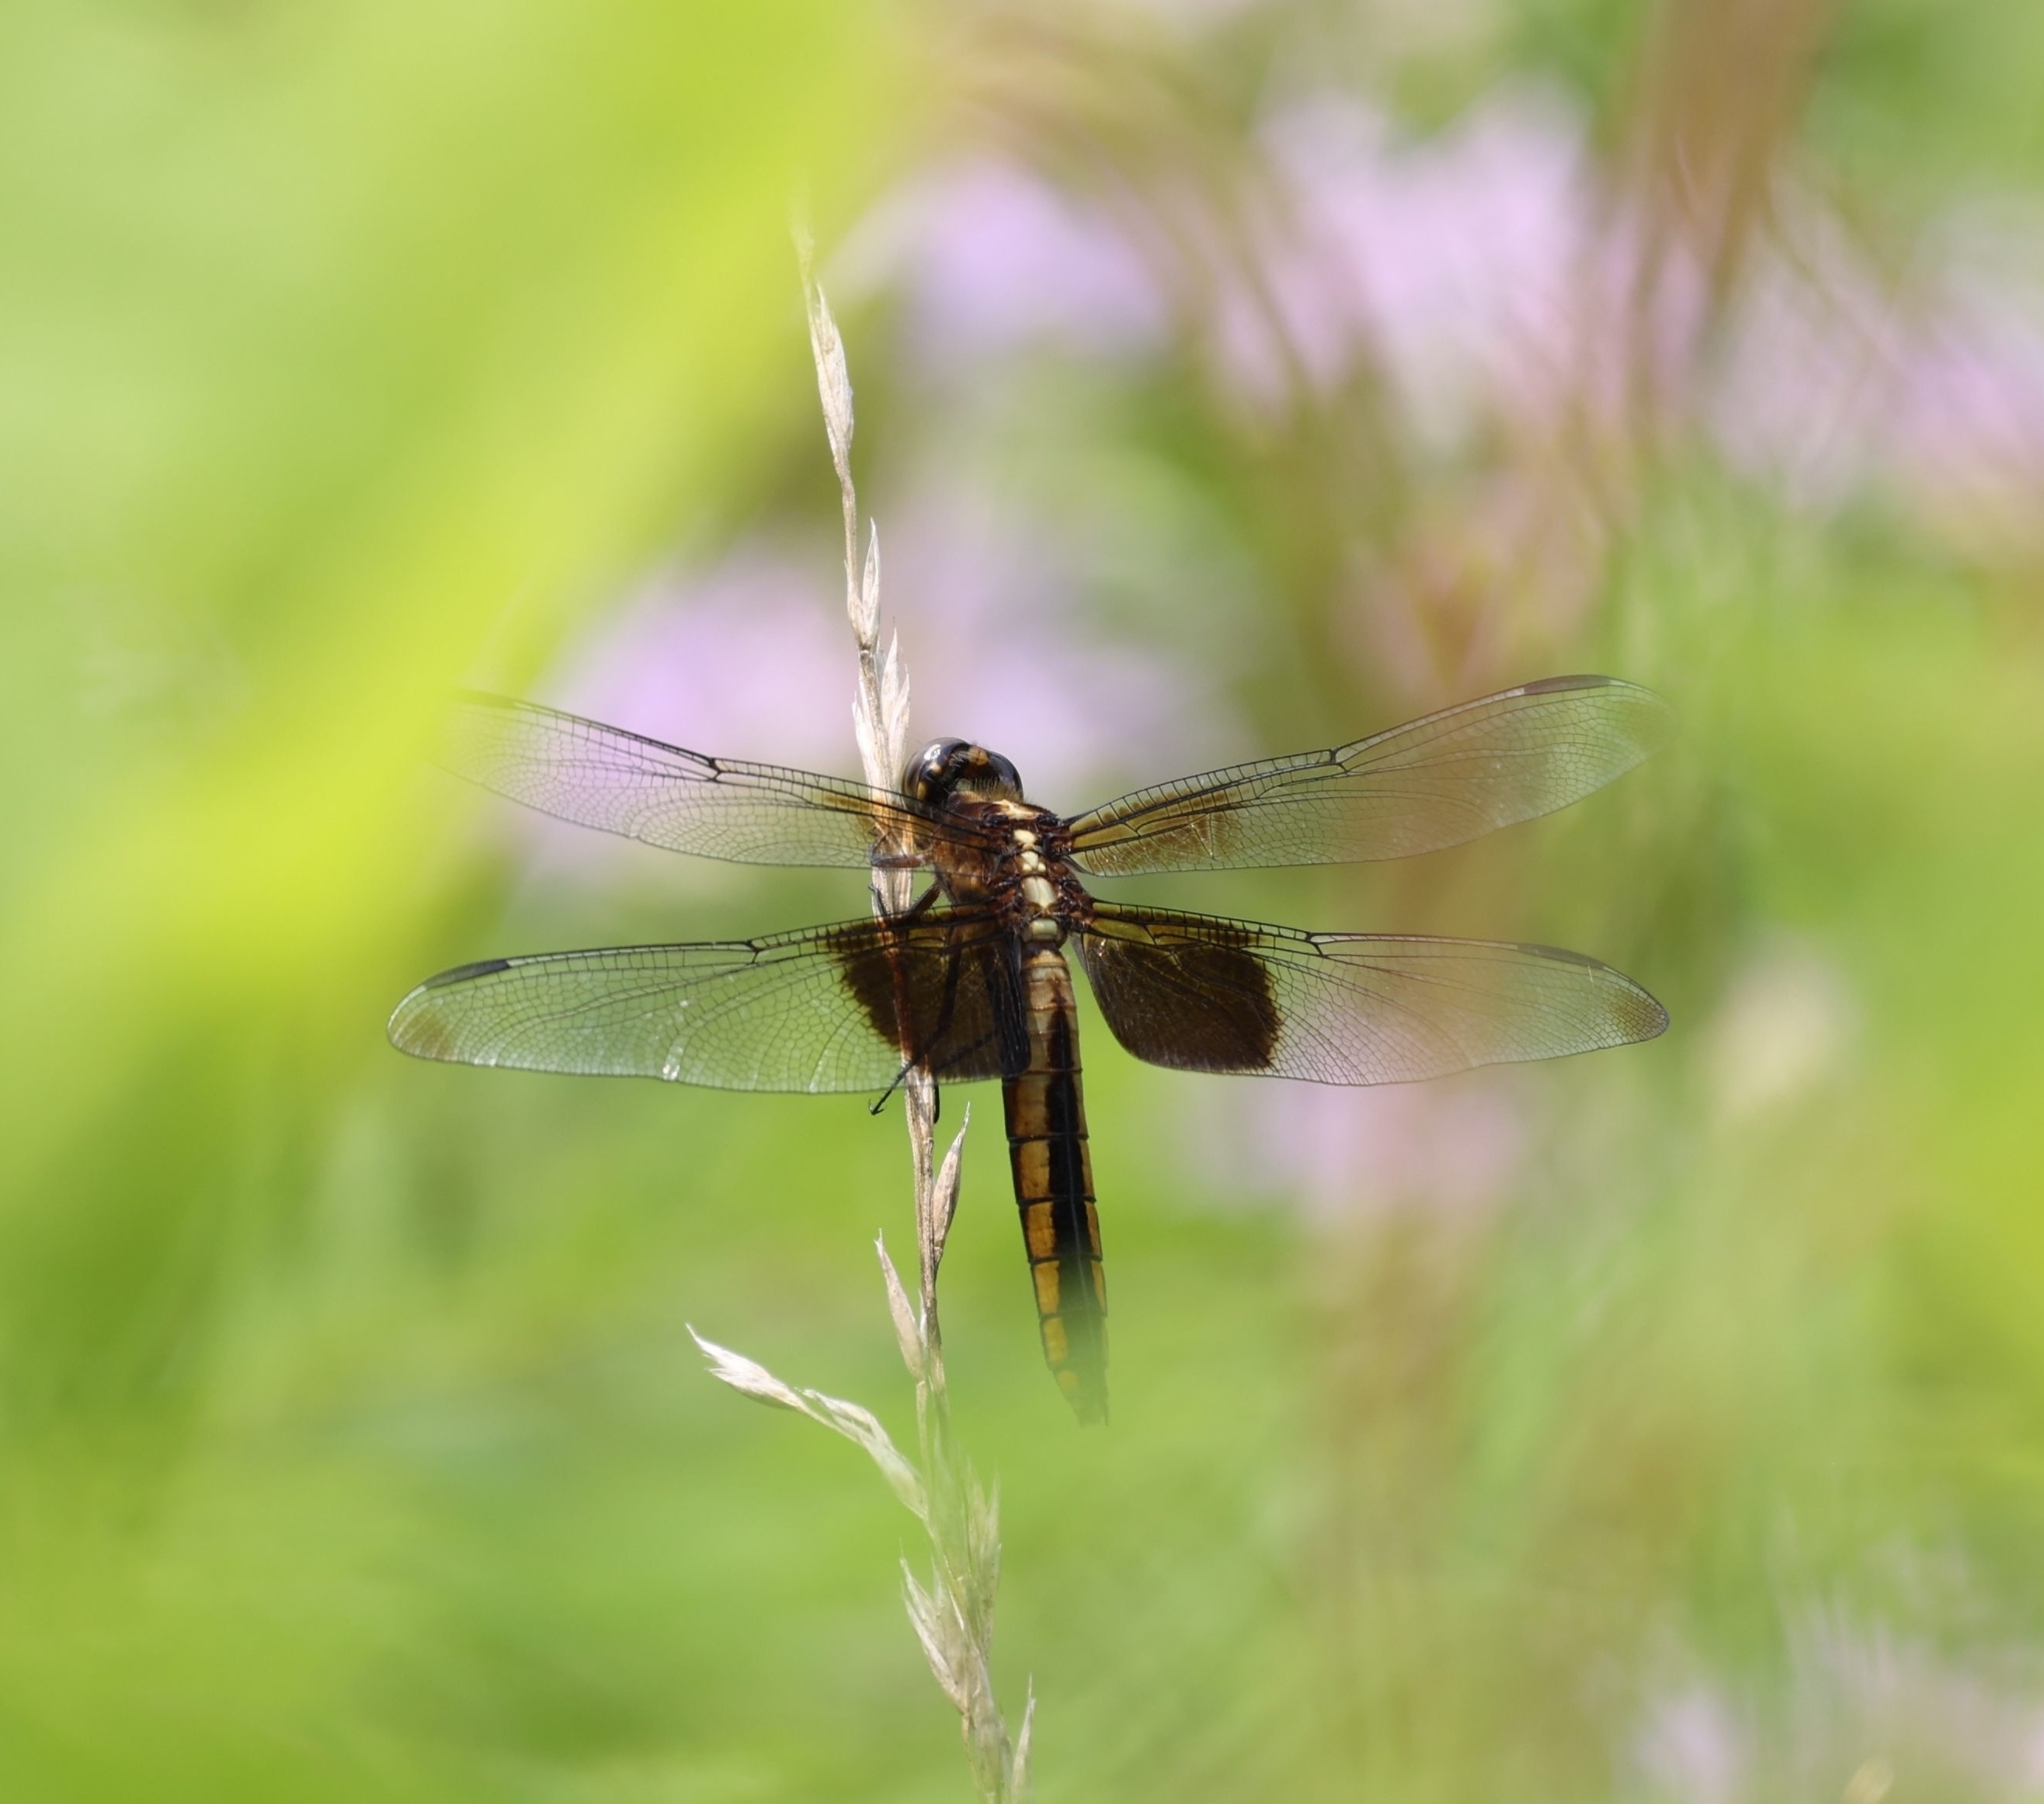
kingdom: Animalia
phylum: Arthropoda
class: Insecta
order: Odonata
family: Libellulidae
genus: Libellula
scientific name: Libellula luctuosa
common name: Widow skimmer
